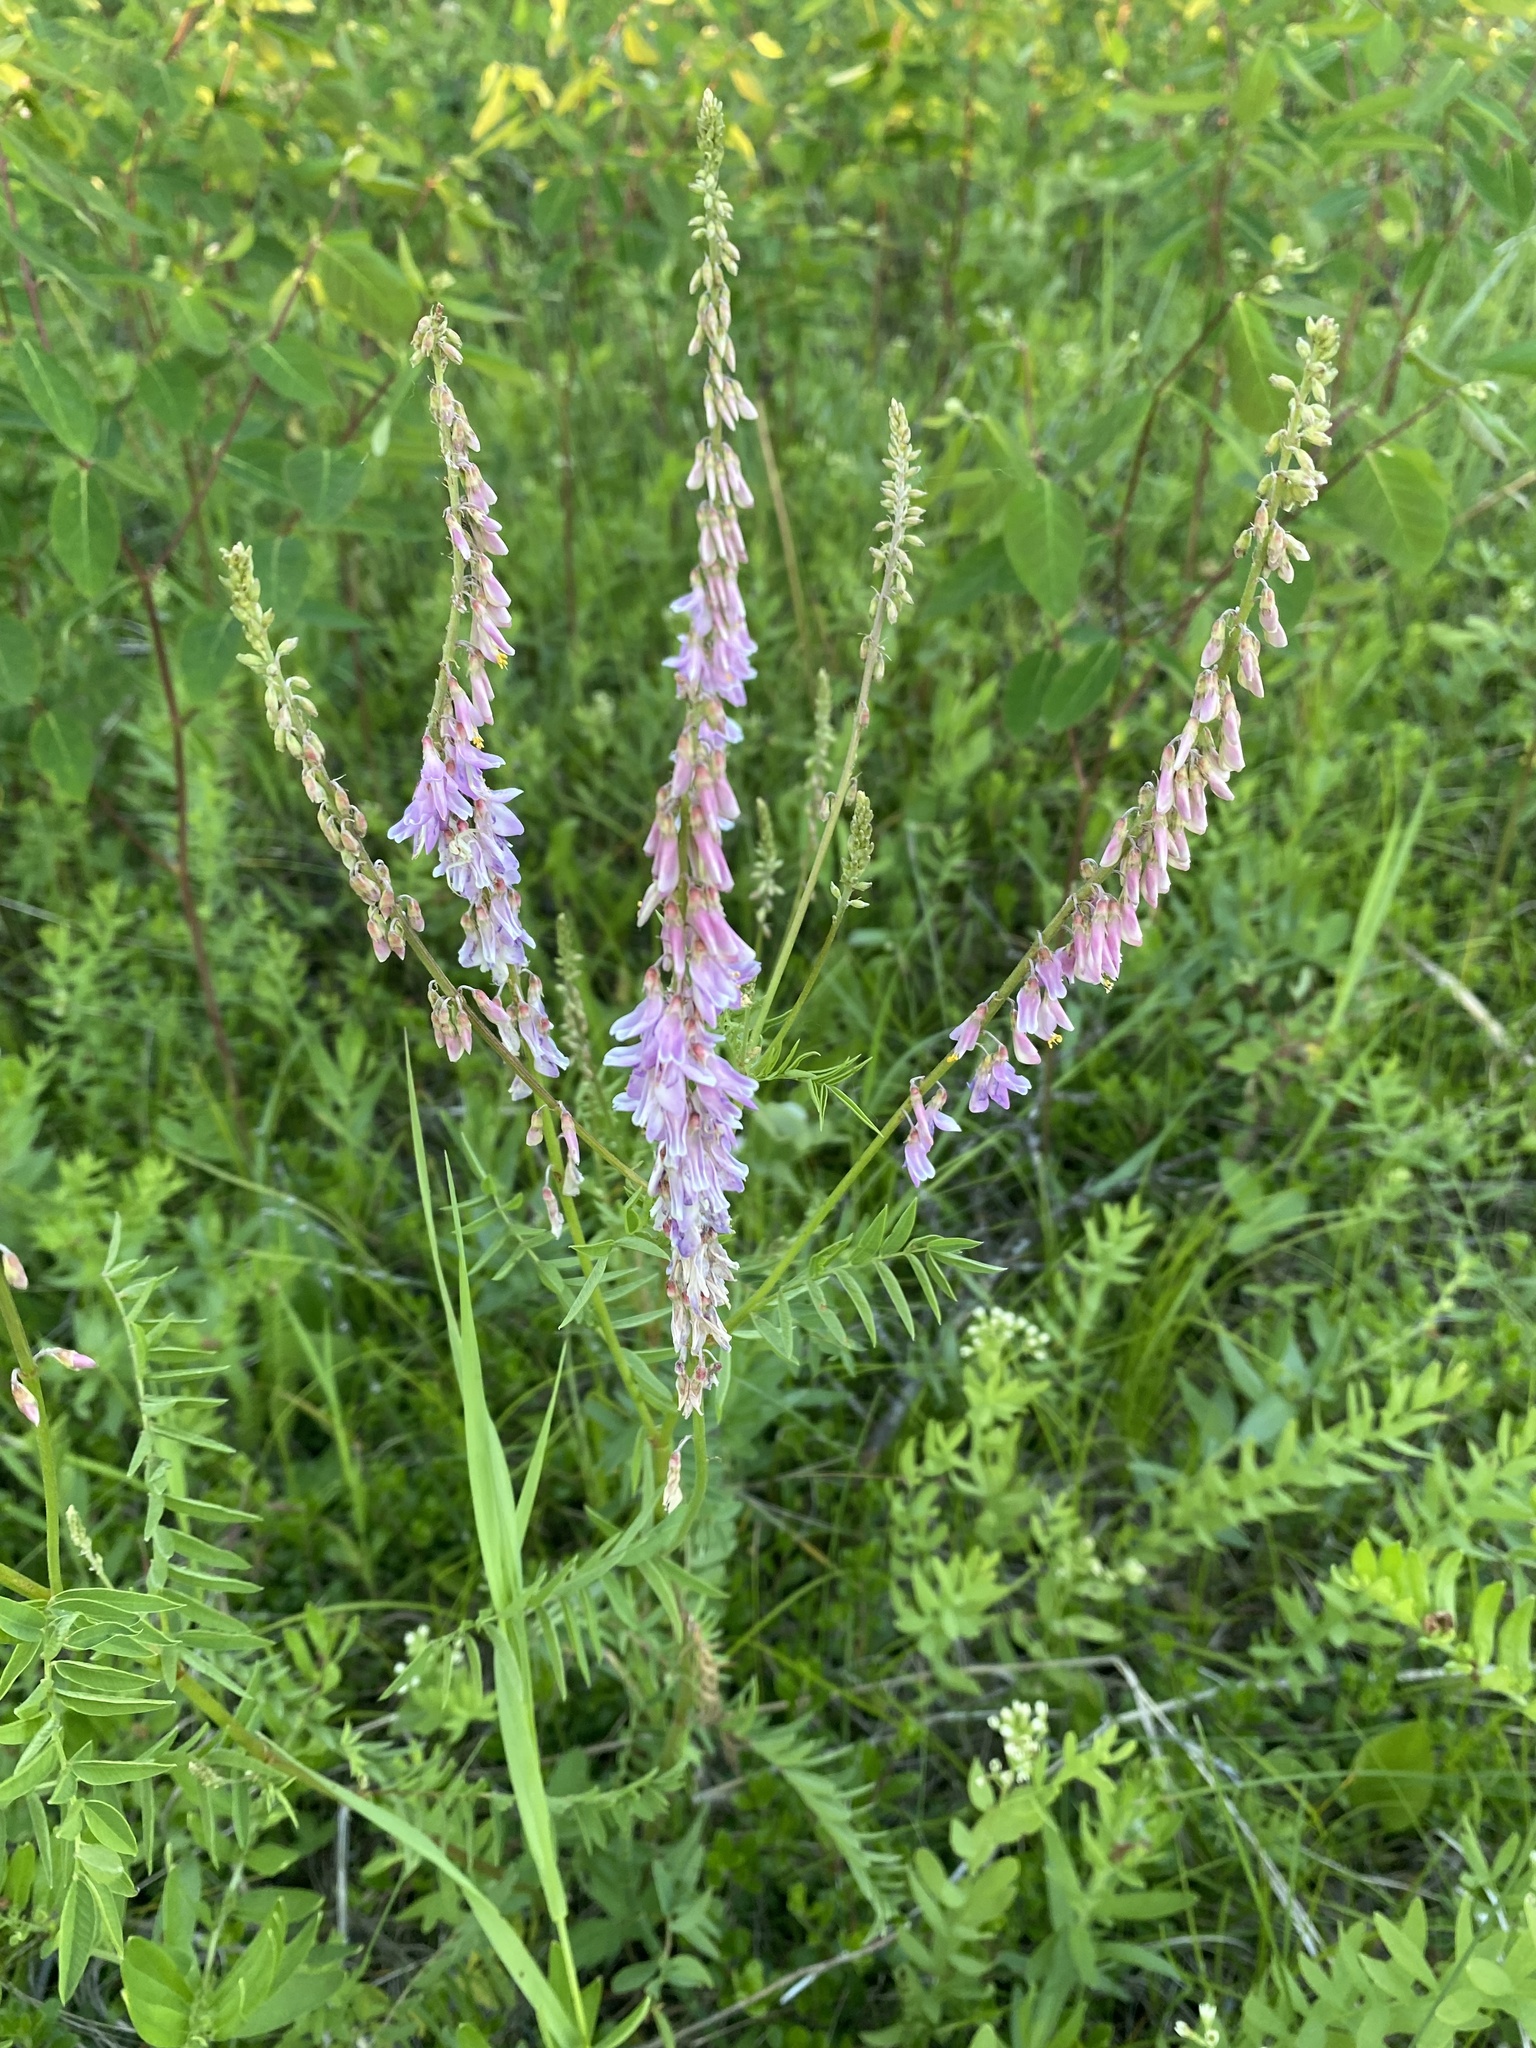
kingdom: Plantae
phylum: Tracheophyta
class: Magnoliopsida
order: Fabales
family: Fabaceae
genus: Hedysarum
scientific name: Hedysarum alpinum
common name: Alpine sweet-vetch
